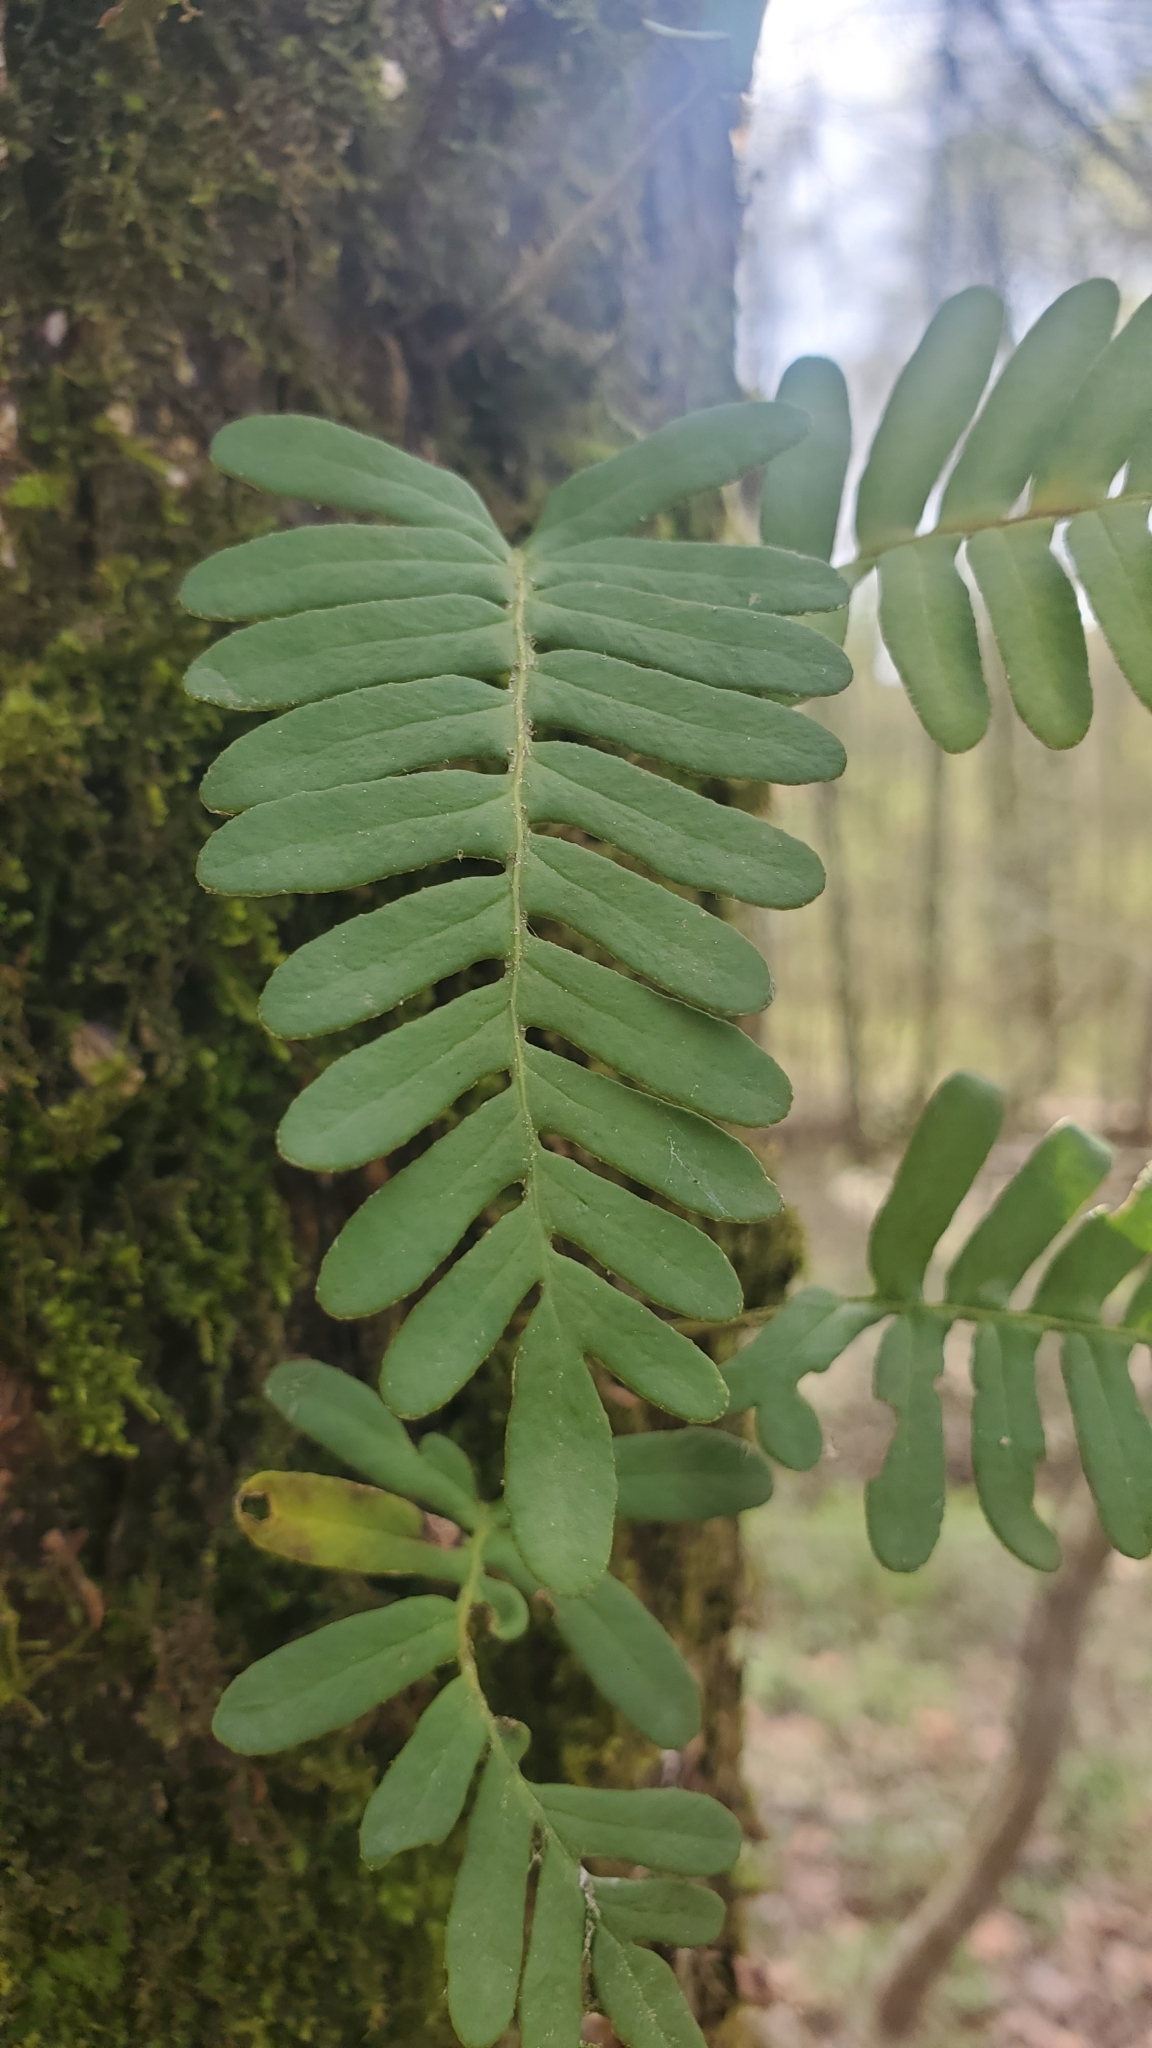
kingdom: Plantae
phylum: Tracheophyta
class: Polypodiopsida
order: Polypodiales
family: Polypodiaceae
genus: Pleopeltis
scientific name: Pleopeltis michauxiana
